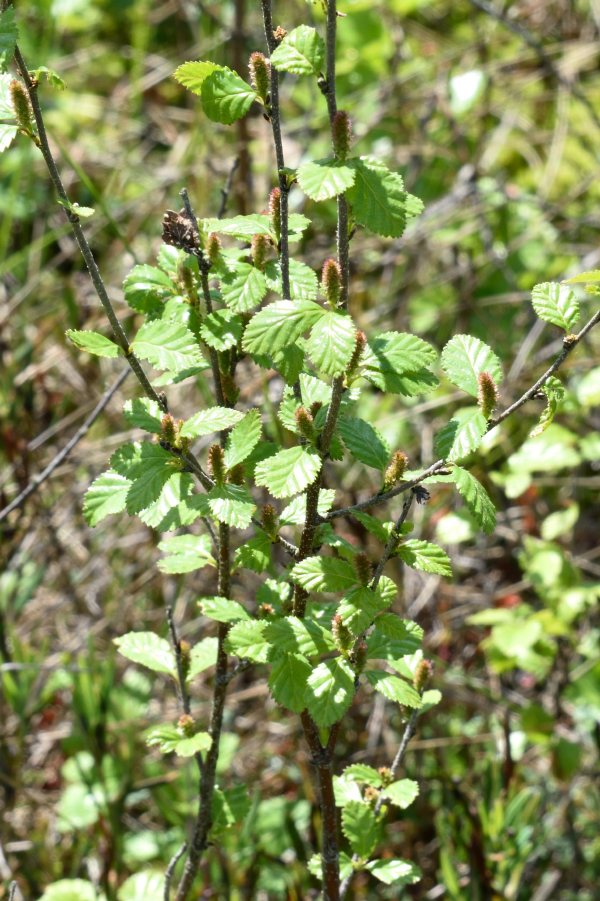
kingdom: Plantae
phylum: Tracheophyta
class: Magnoliopsida
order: Fagales
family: Betulaceae
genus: Betula
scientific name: Betula humilis
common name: Shrubby birch
